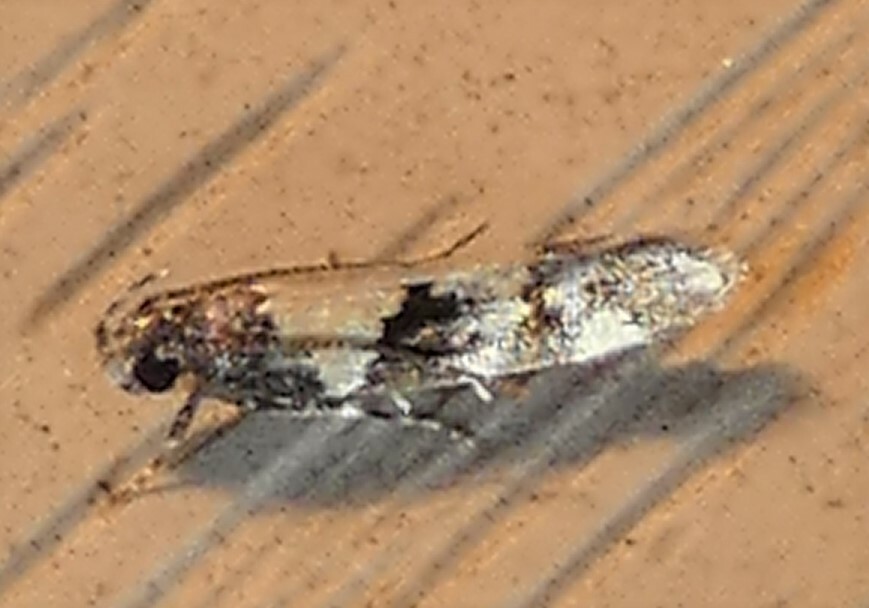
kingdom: Animalia
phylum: Arthropoda
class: Insecta
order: Lepidoptera
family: Gelechiidae
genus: Stegasta
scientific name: Stegasta bosqueella
